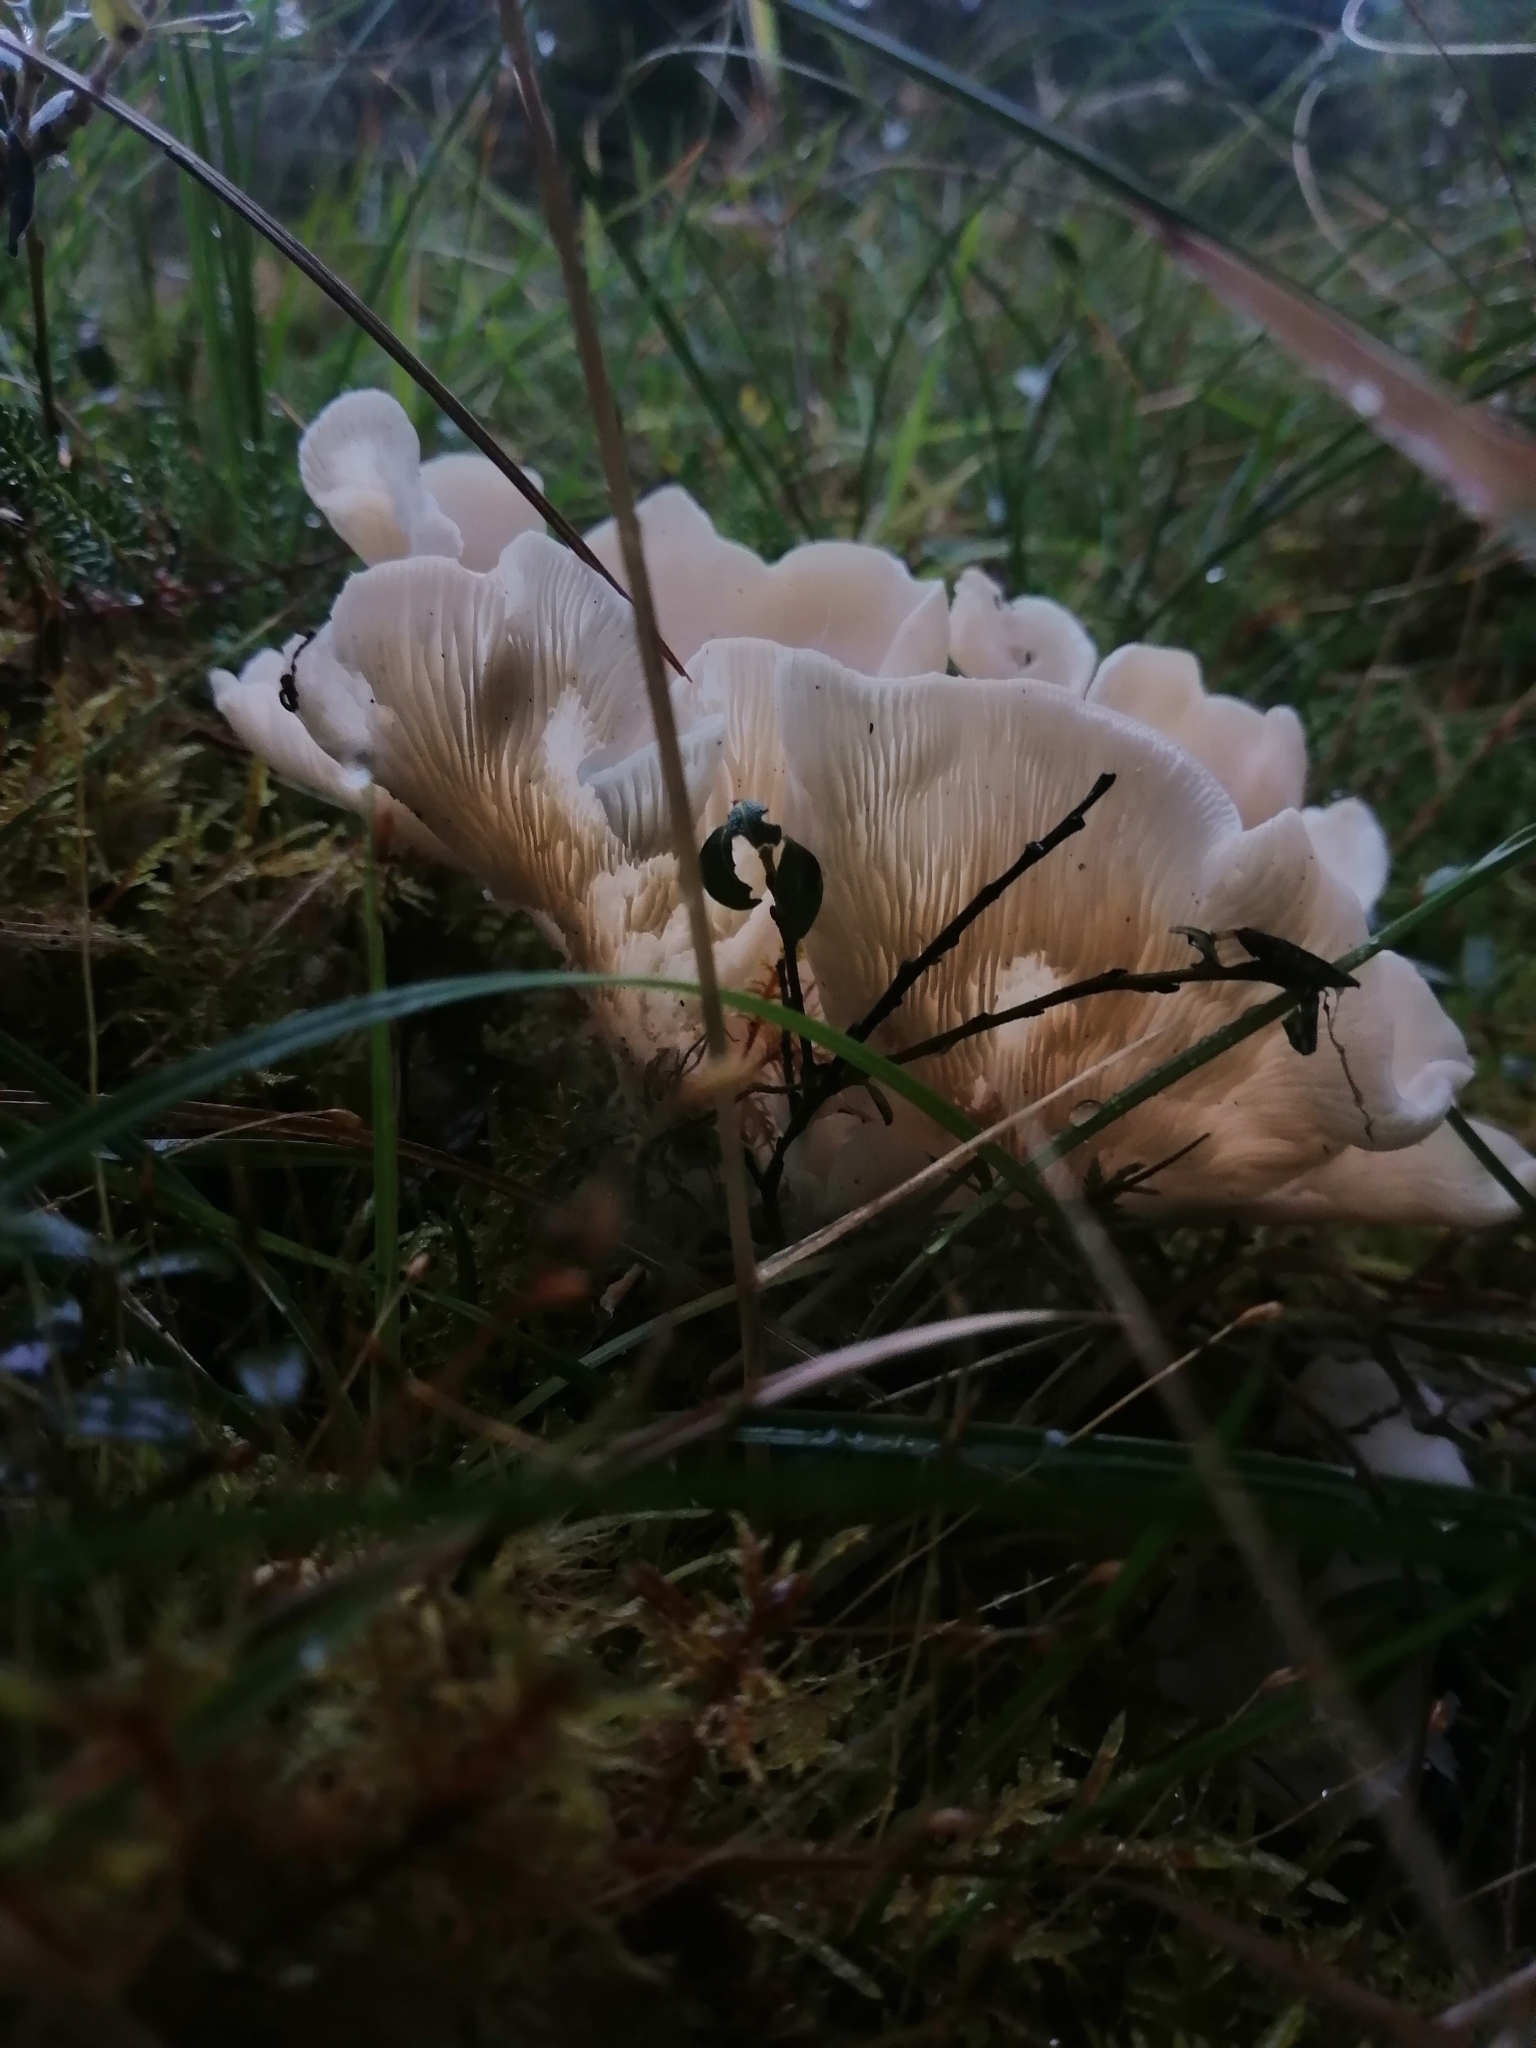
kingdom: Fungi
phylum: Basidiomycota
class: Agaricomycetes
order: Agaricales
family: Marasmiaceae
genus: Pleurocybella
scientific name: Pleurocybella porrigens
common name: Angel's wings
